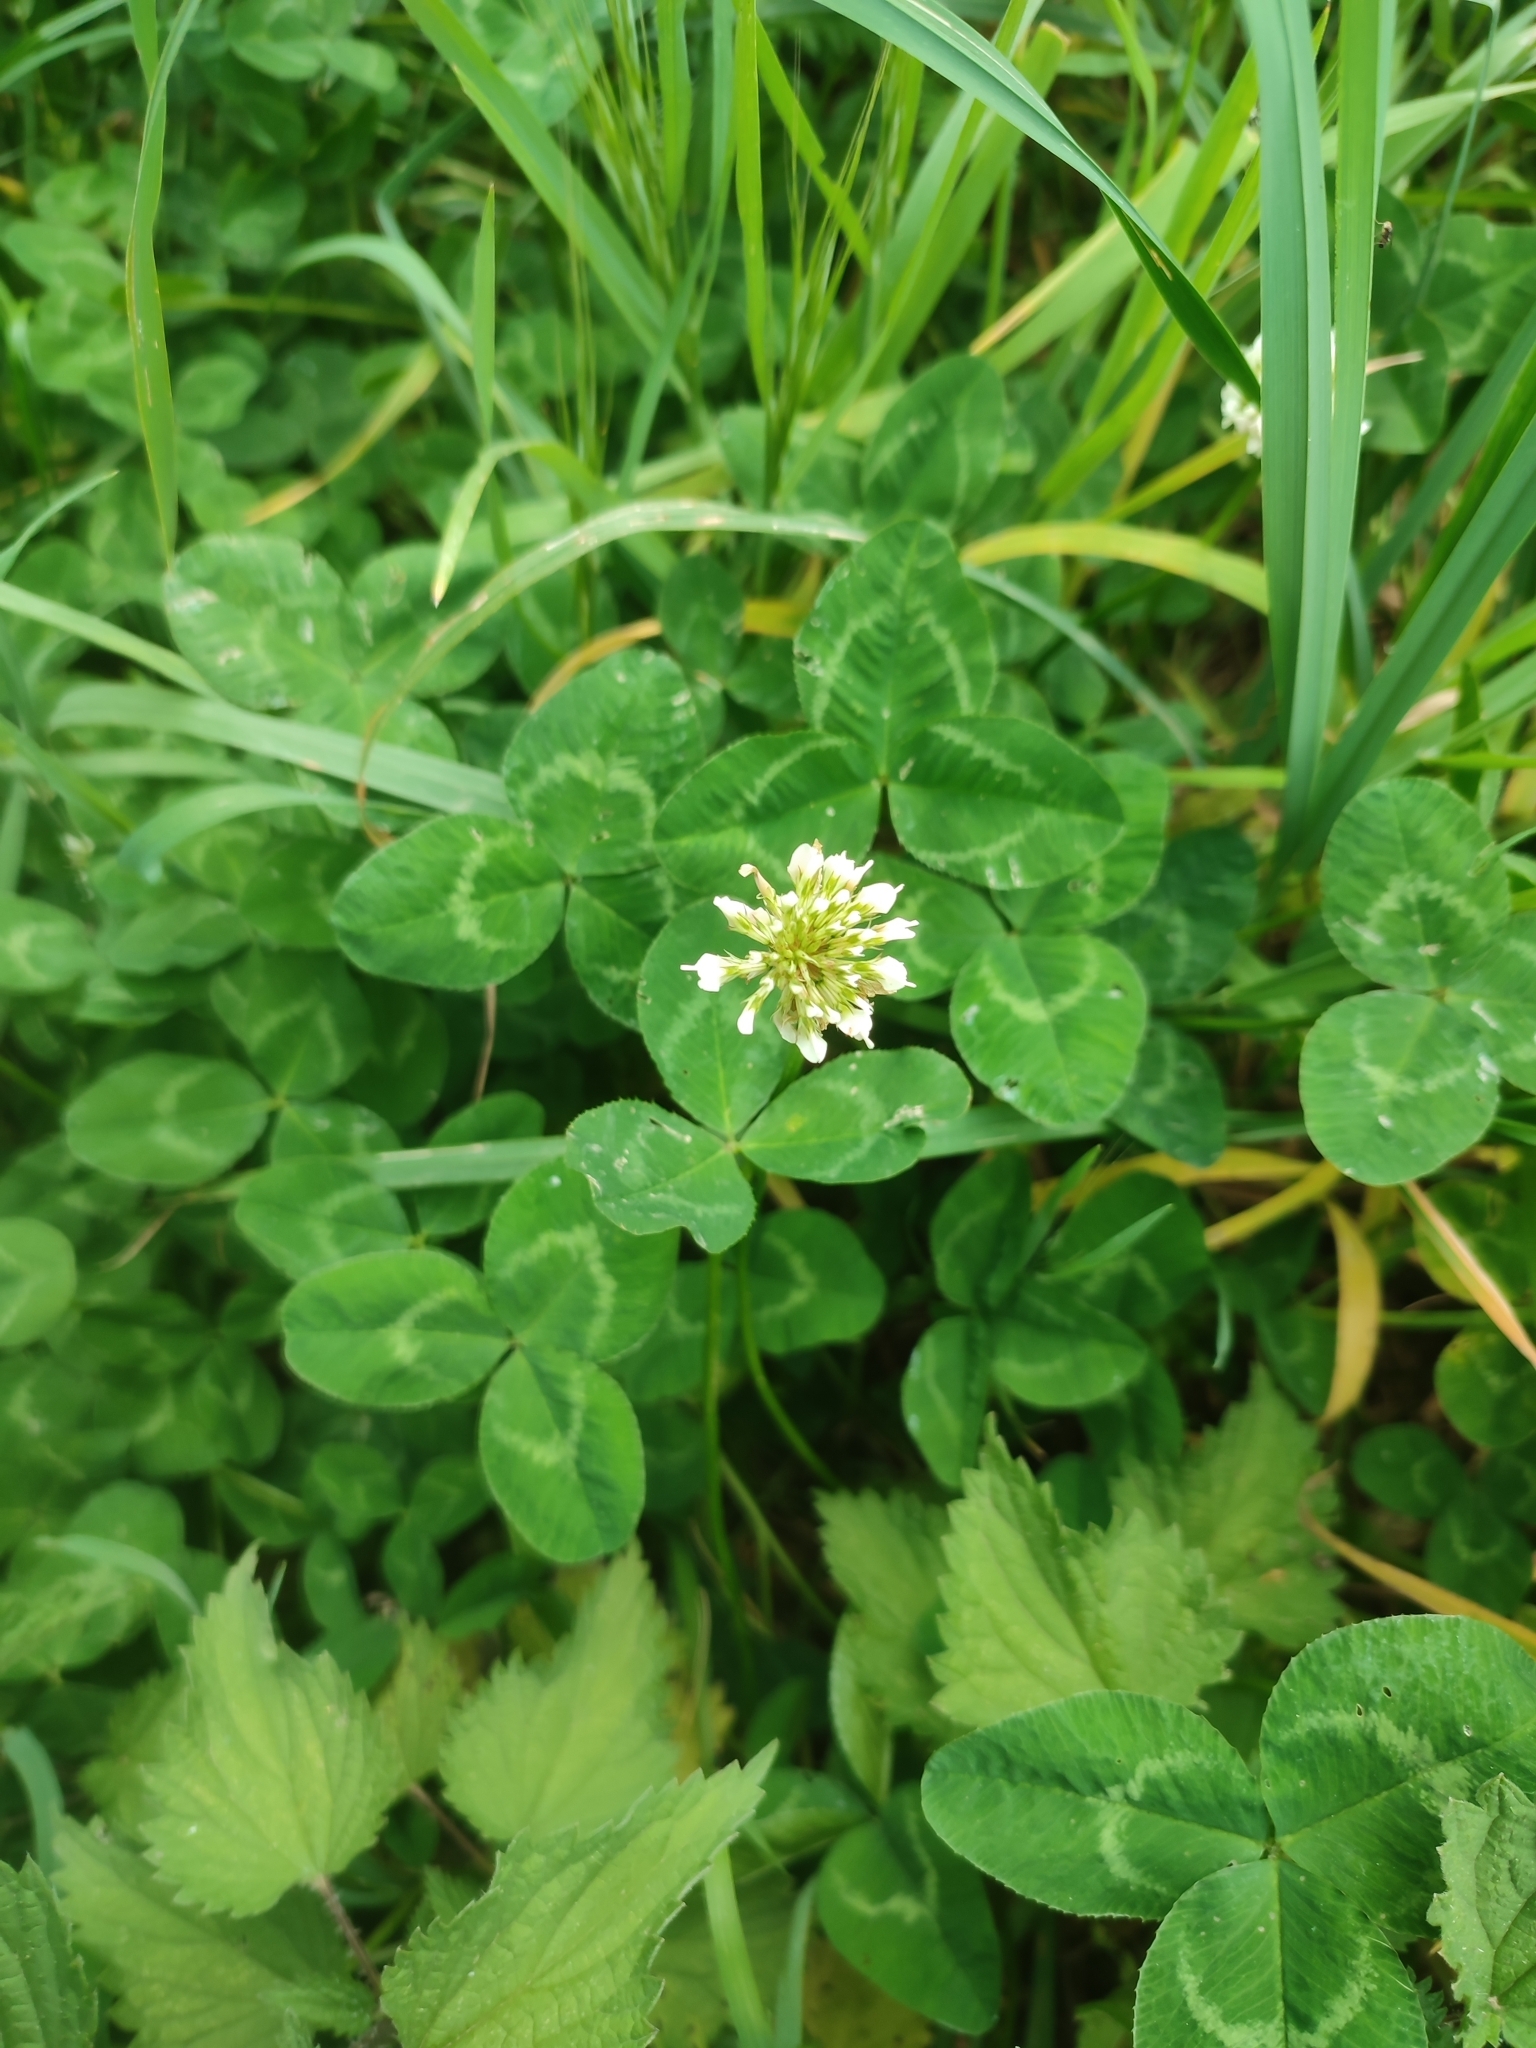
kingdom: Plantae
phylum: Tracheophyta
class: Magnoliopsida
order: Fabales
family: Fabaceae
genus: Trifolium
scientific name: Trifolium repens
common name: White clover
